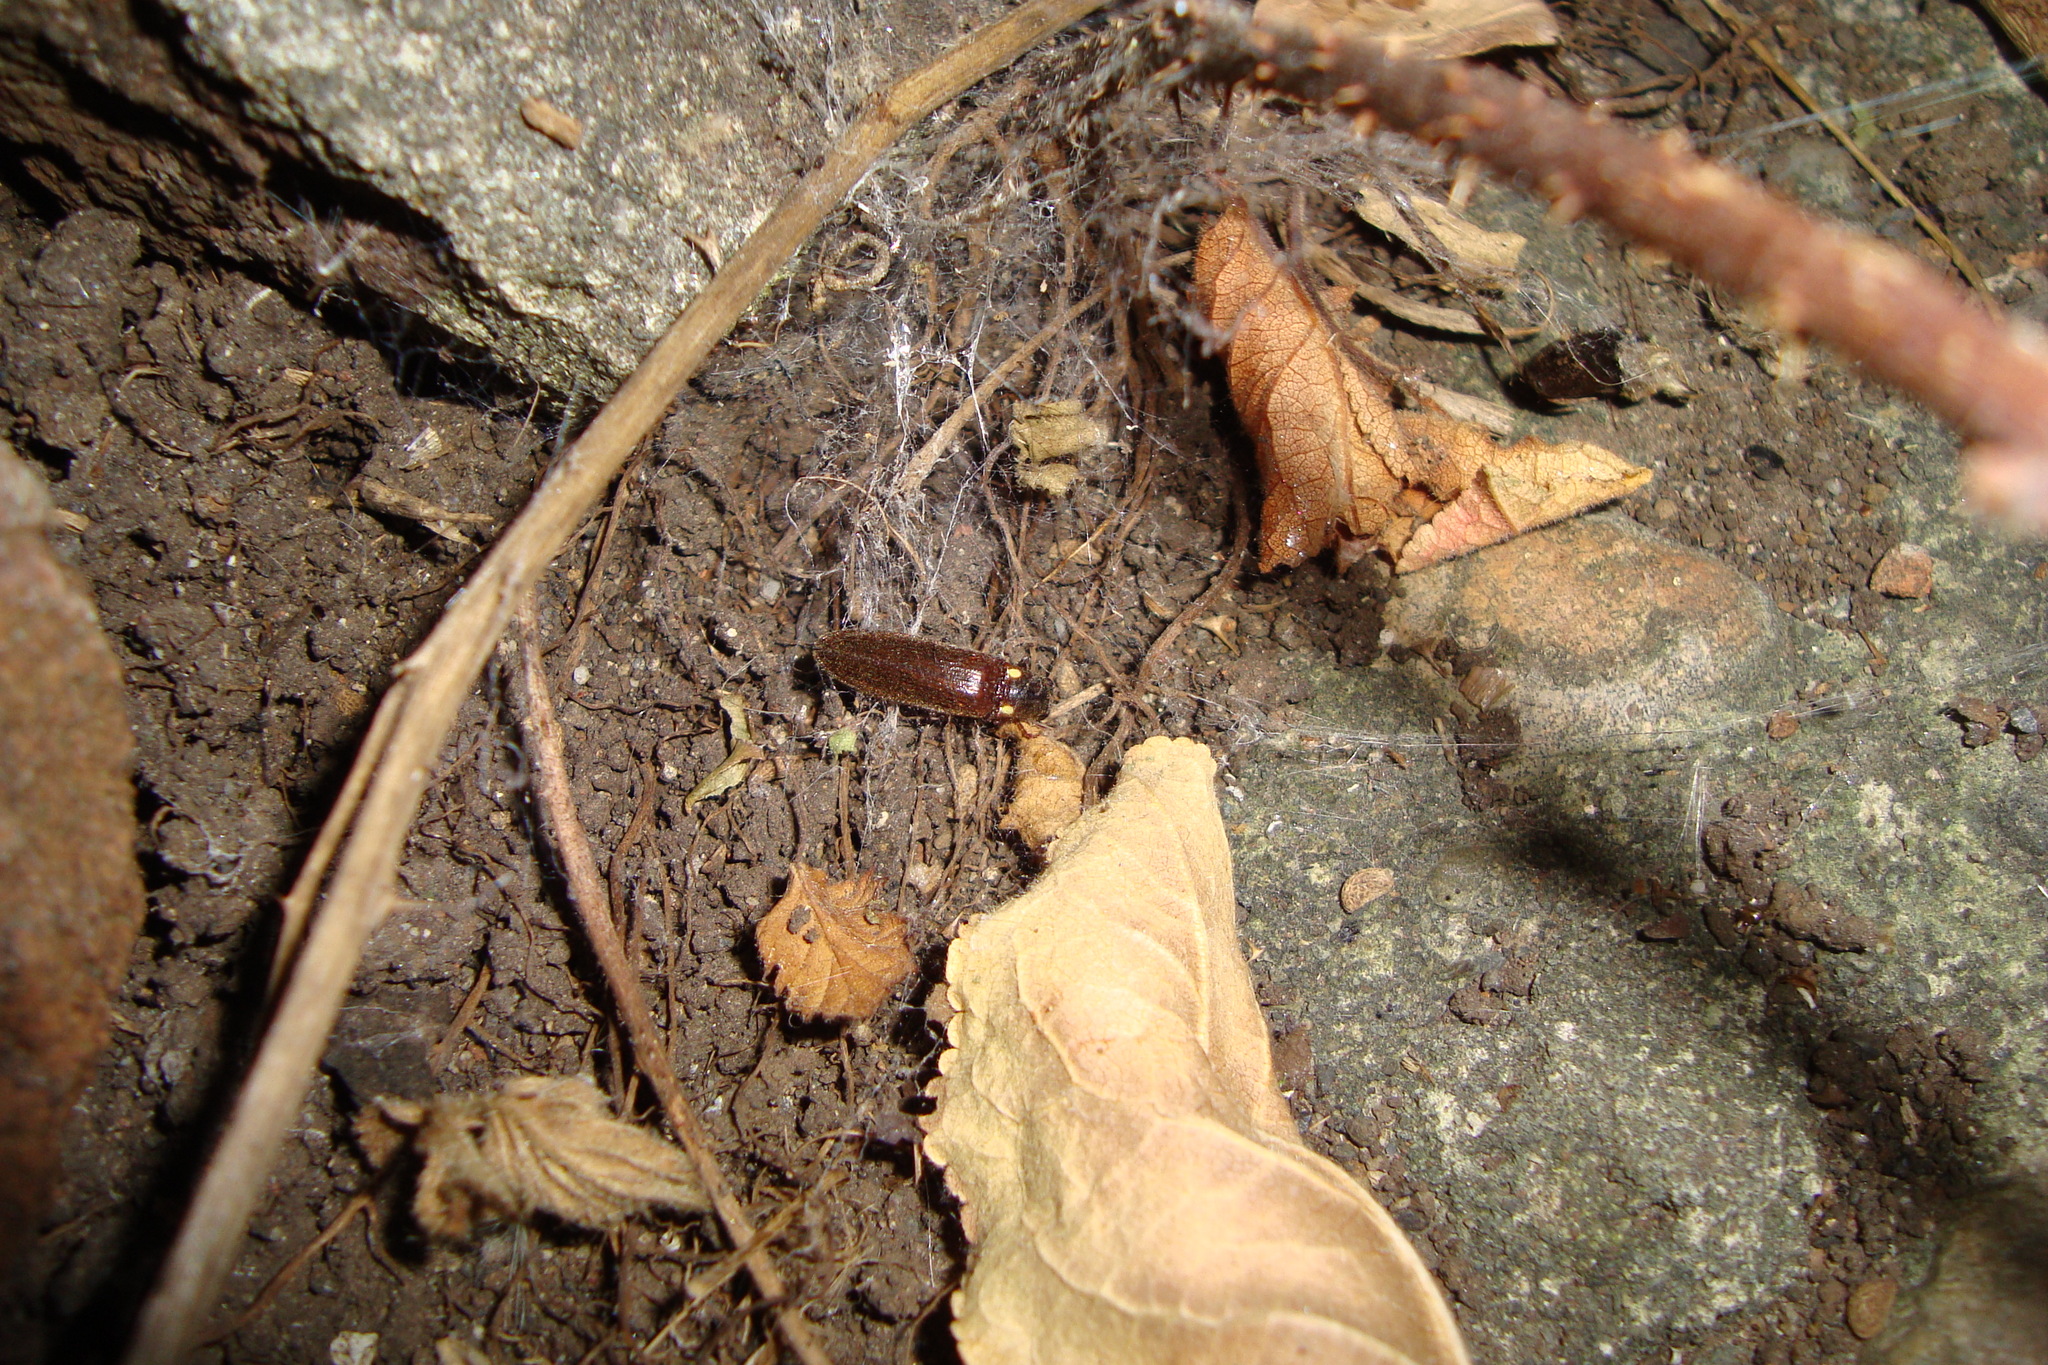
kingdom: Animalia
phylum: Arthropoda
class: Insecta
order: Coleoptera
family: Elateridae
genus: Phanophorus
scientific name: Phanophorus
